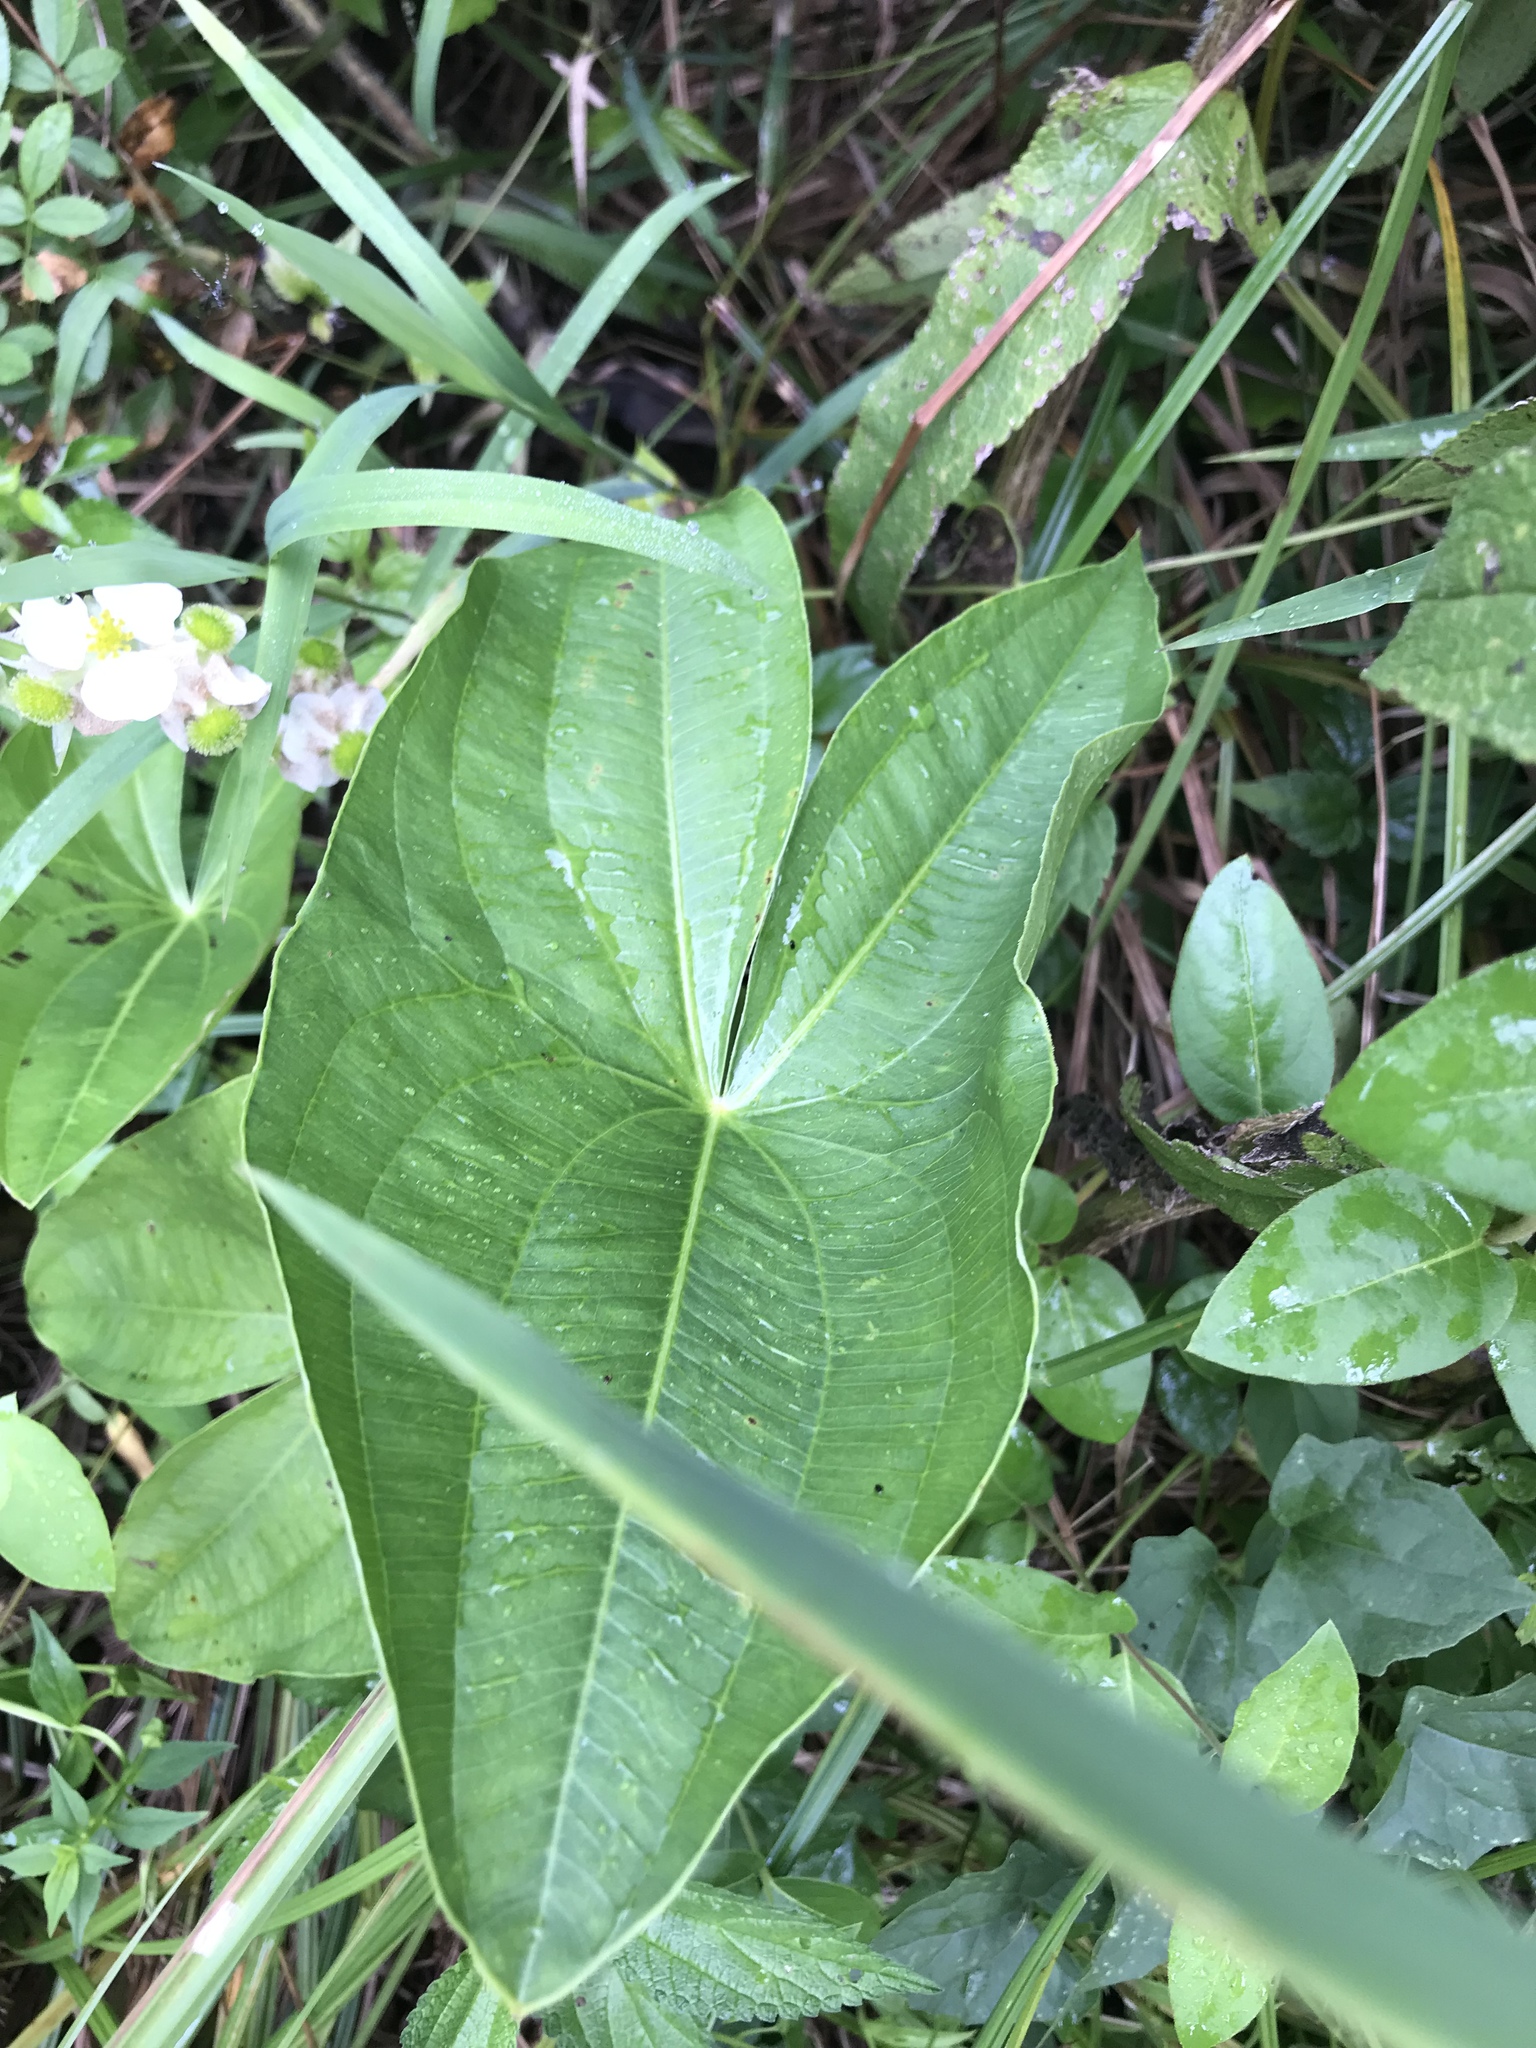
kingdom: Plantae
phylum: Tracheophyta
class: Liliopsida
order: Alismatales
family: Alismataceae
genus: Sagittaria
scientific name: Sagittaria australis
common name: Appalachian arrowhead
